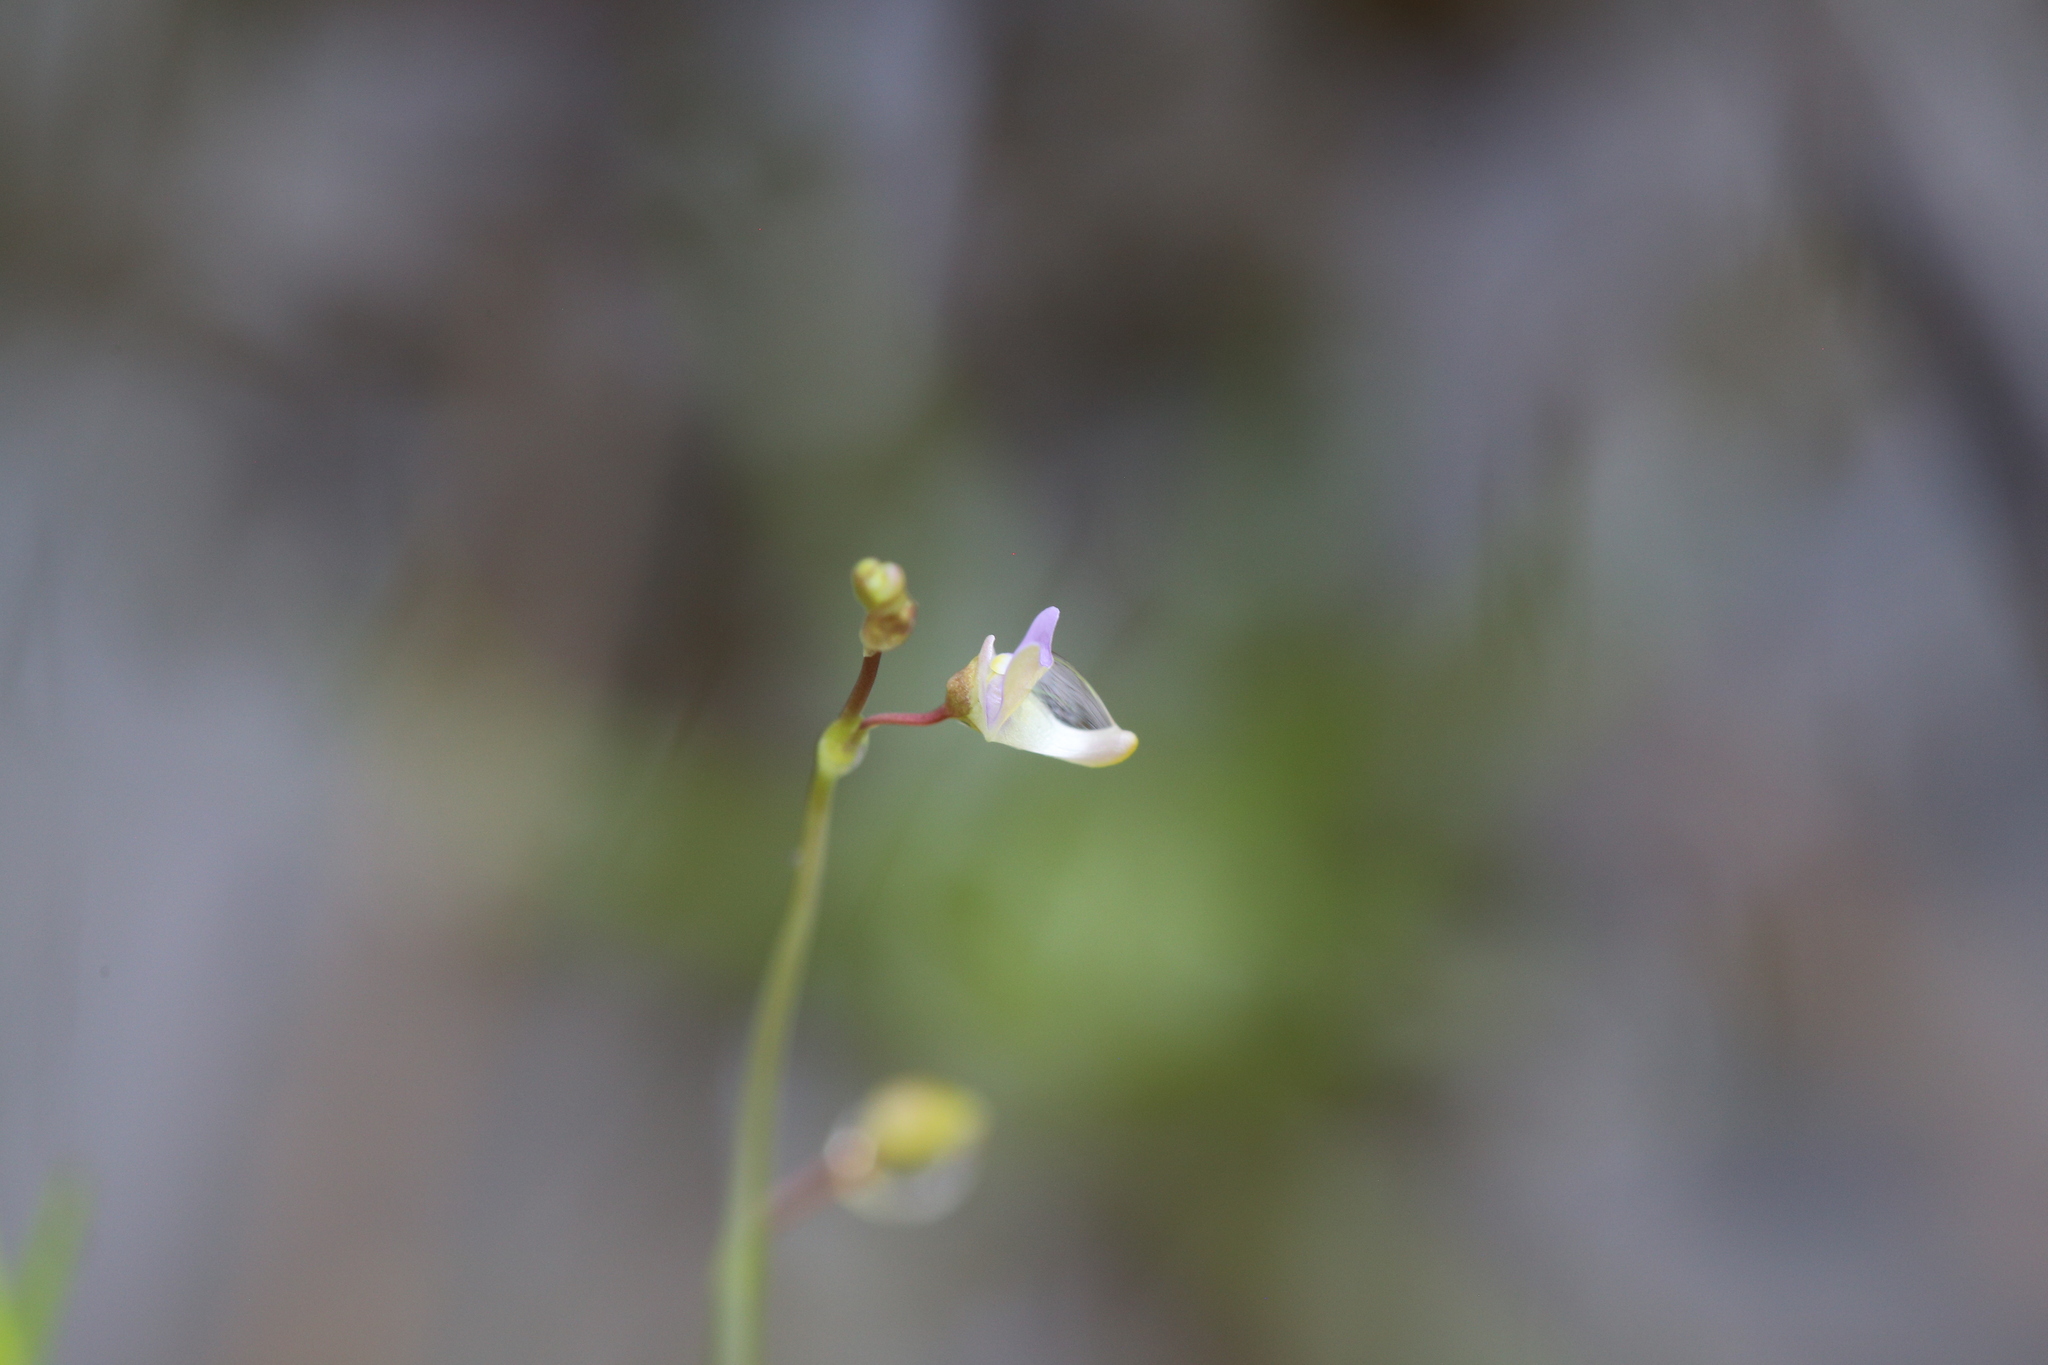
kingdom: Plantae
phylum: Tracheophyta
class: Magnoliopsida
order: Lamiales
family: Lentibulariaceae
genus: Utricularia
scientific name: Utricularia limosa
